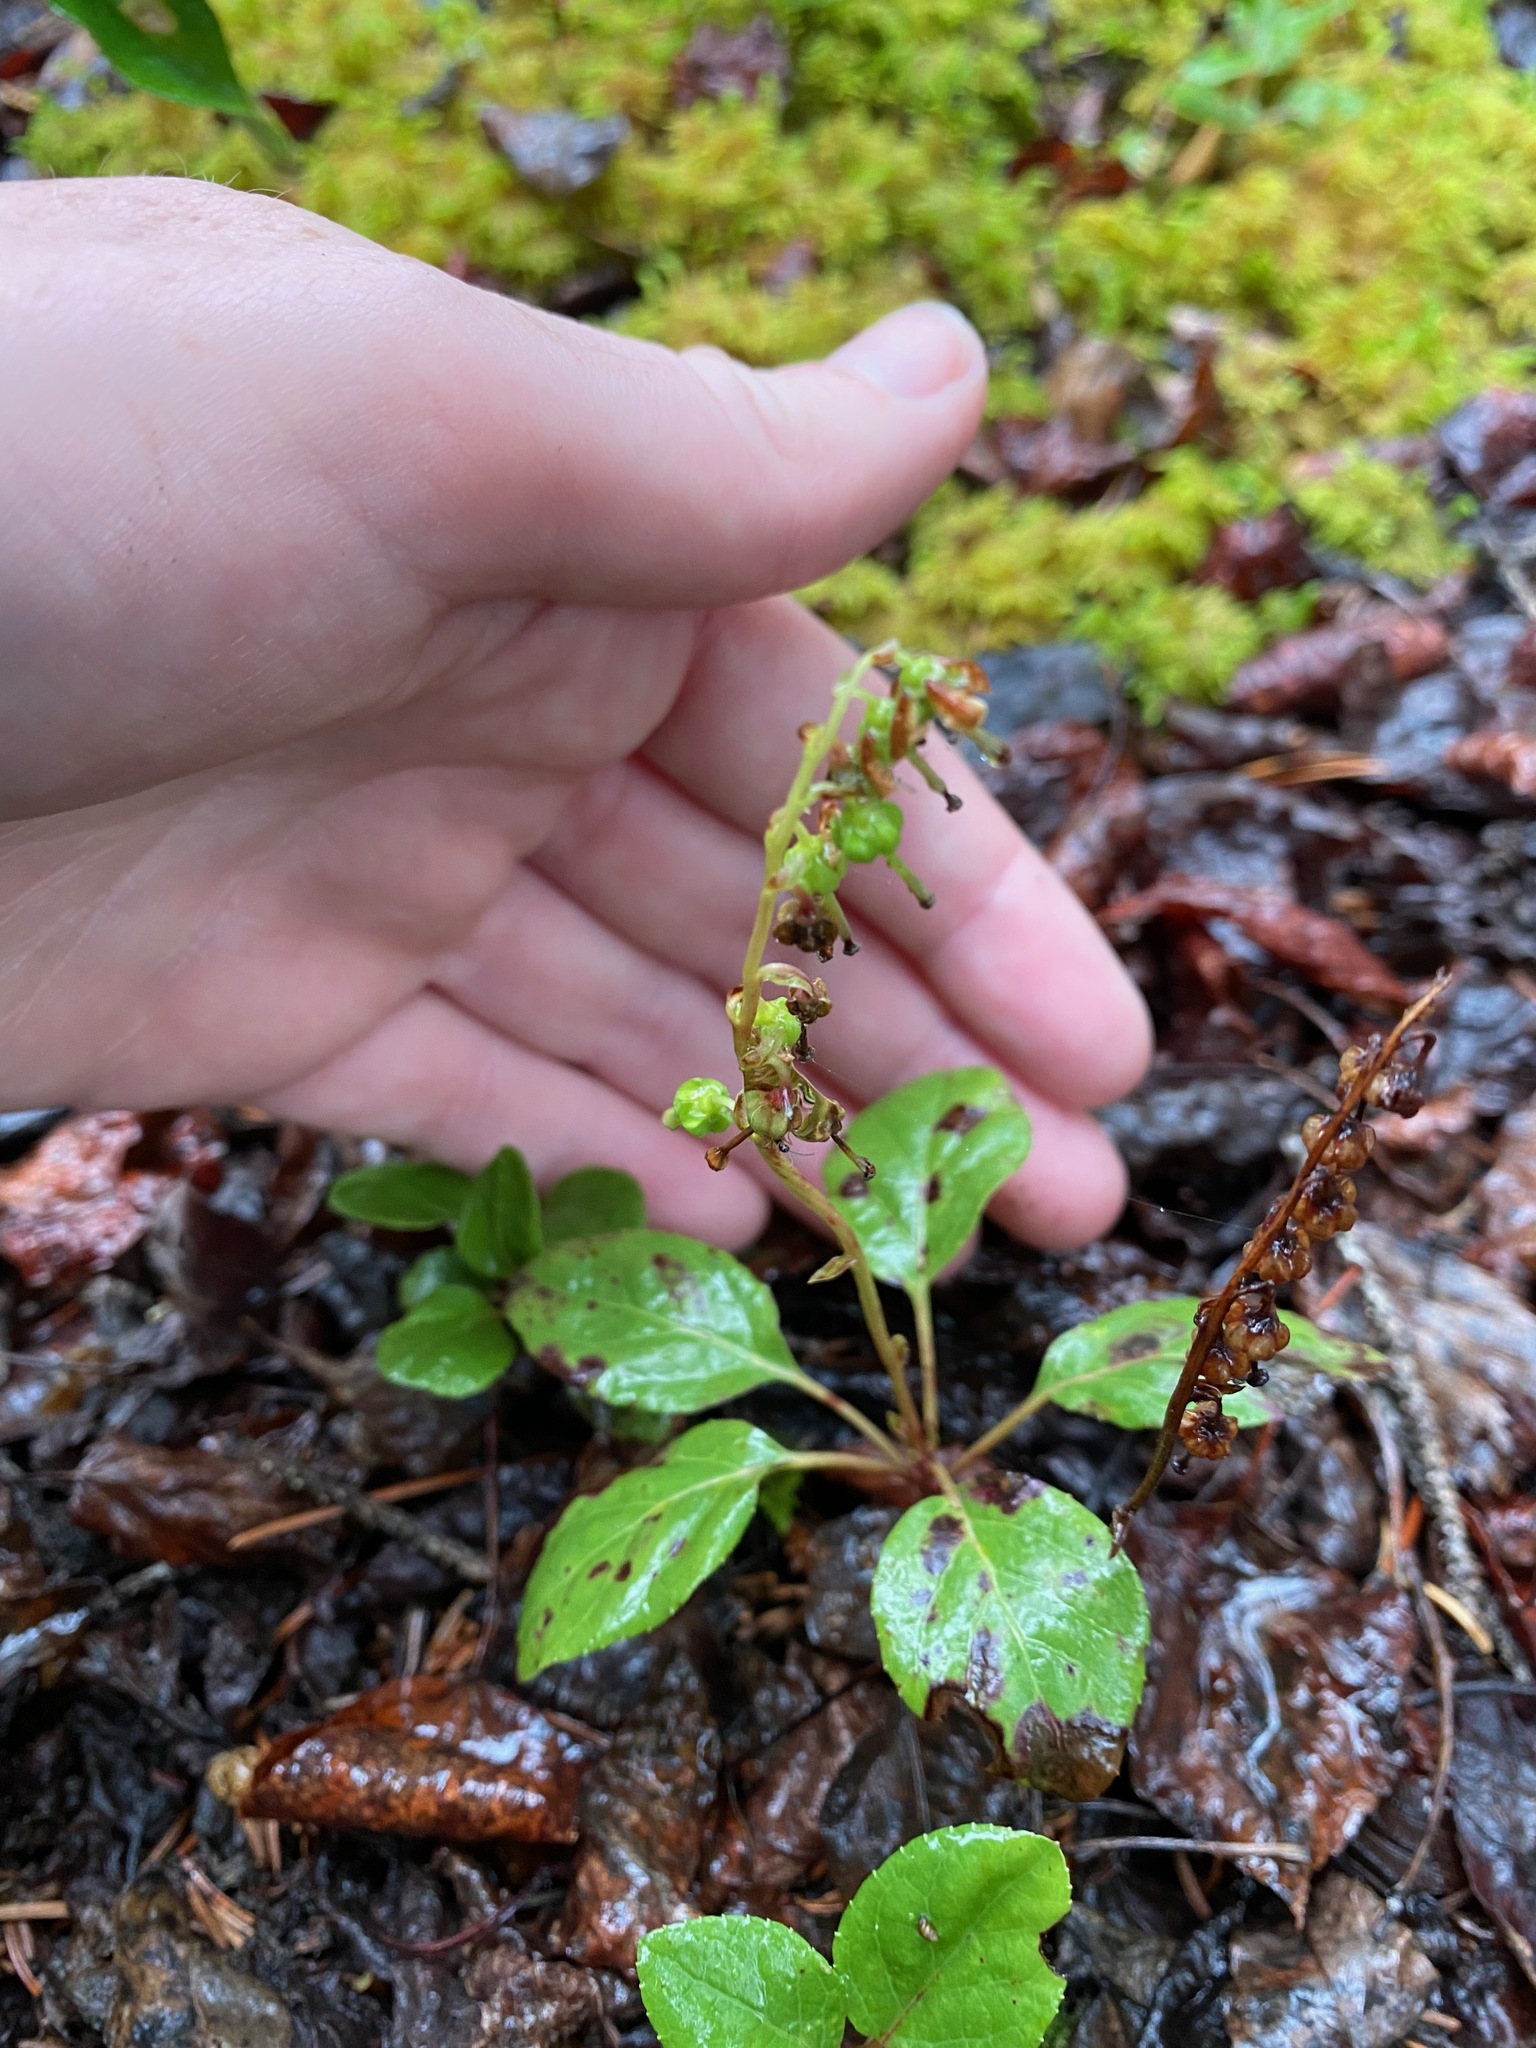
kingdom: Plantae
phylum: Tracheophyta
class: Magnoliopsida
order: Ericales
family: Ericaceae
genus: Orthilia
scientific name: Orthilia secunda
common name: One-sided orthilia
